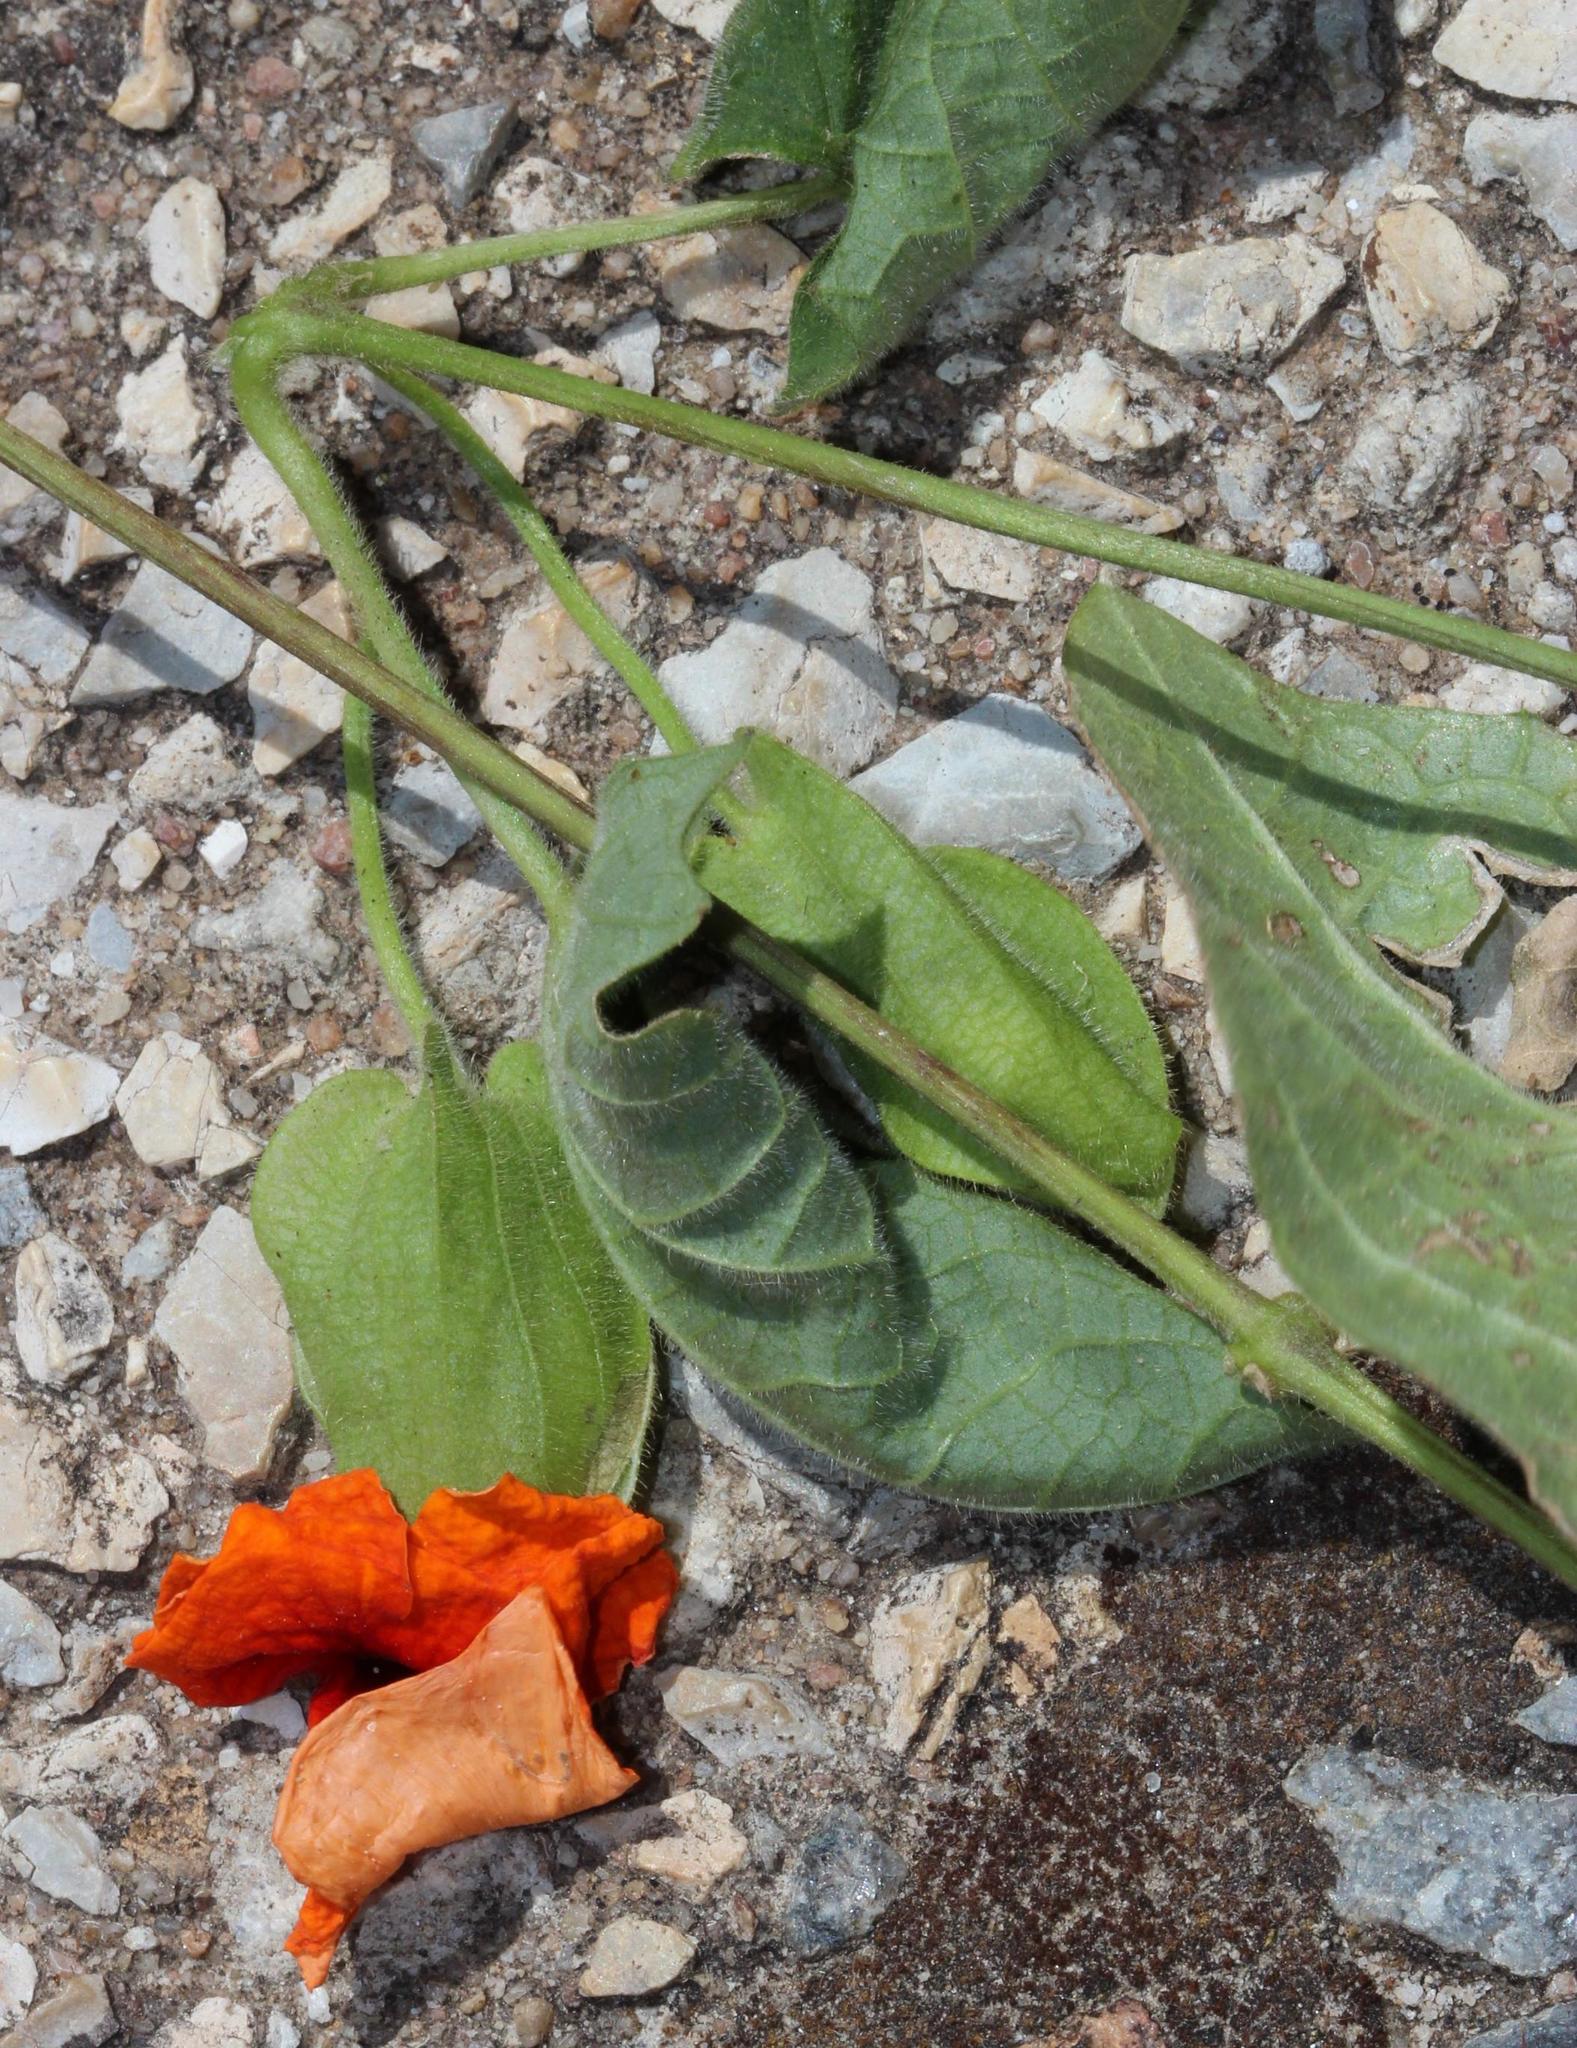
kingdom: Plantae
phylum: Tracheophyta
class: Magnoliopsida
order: Lamiales
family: Acanthaceae
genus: Thunbergia
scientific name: Thunbergia alata
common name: Blackeyed susan vine
